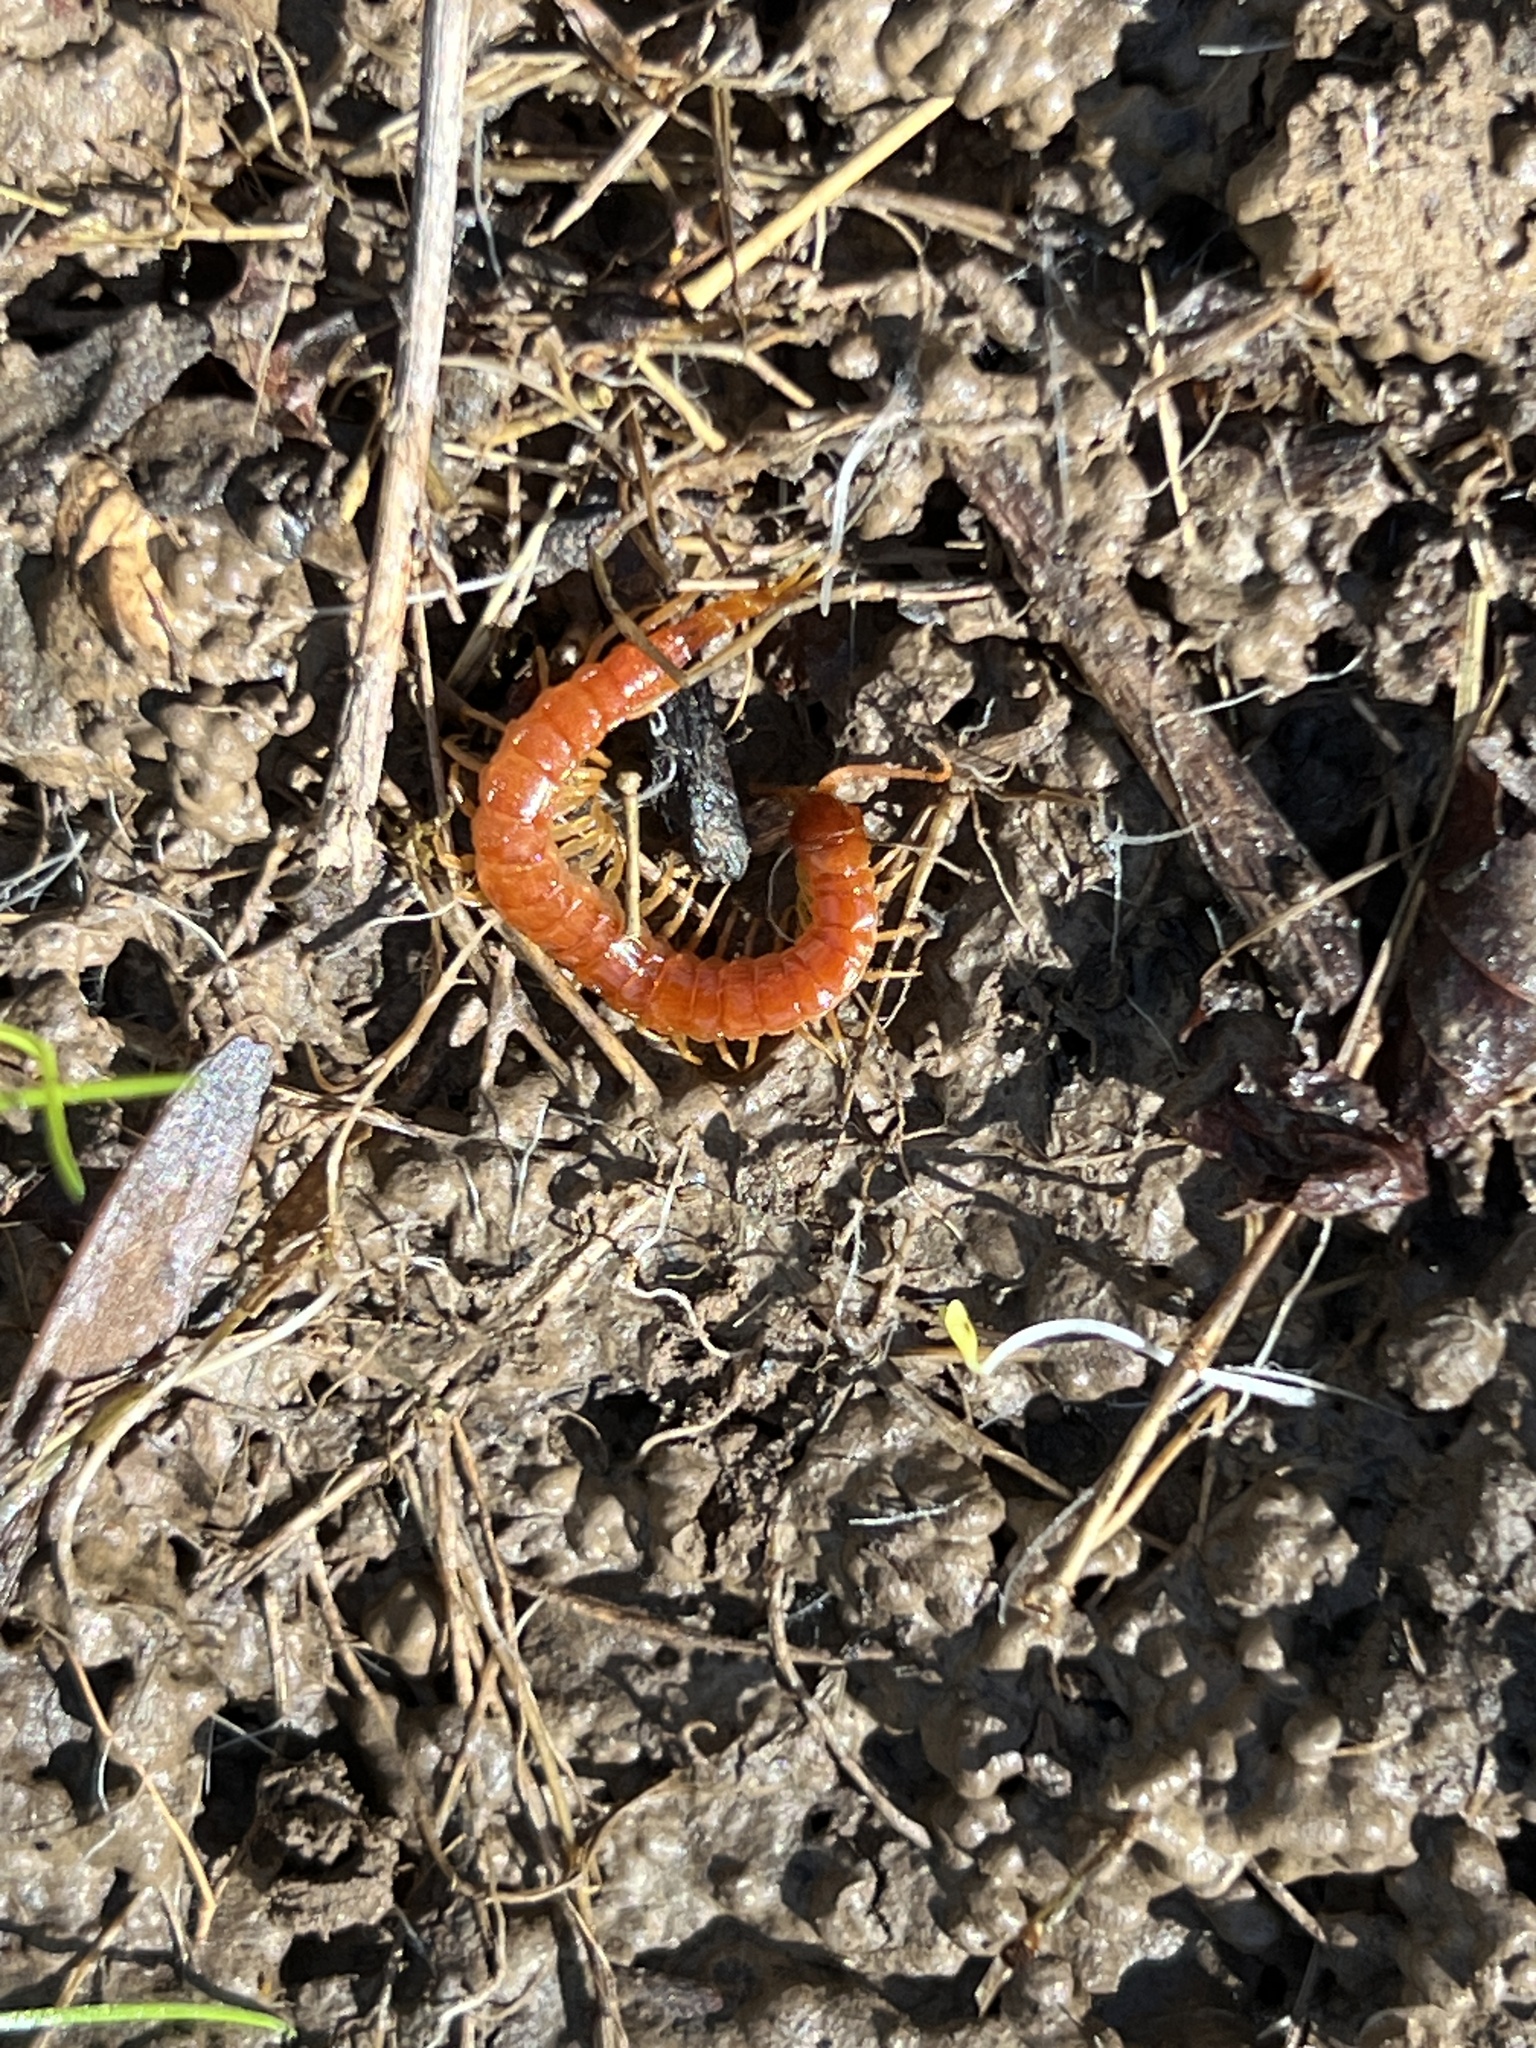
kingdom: Animalia
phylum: Arthropoda
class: Chilopoda
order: Scolopendromorpha
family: Scolopocryptopidae
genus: Scolopocryptops
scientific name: Scolopocryptops sexspinosus
